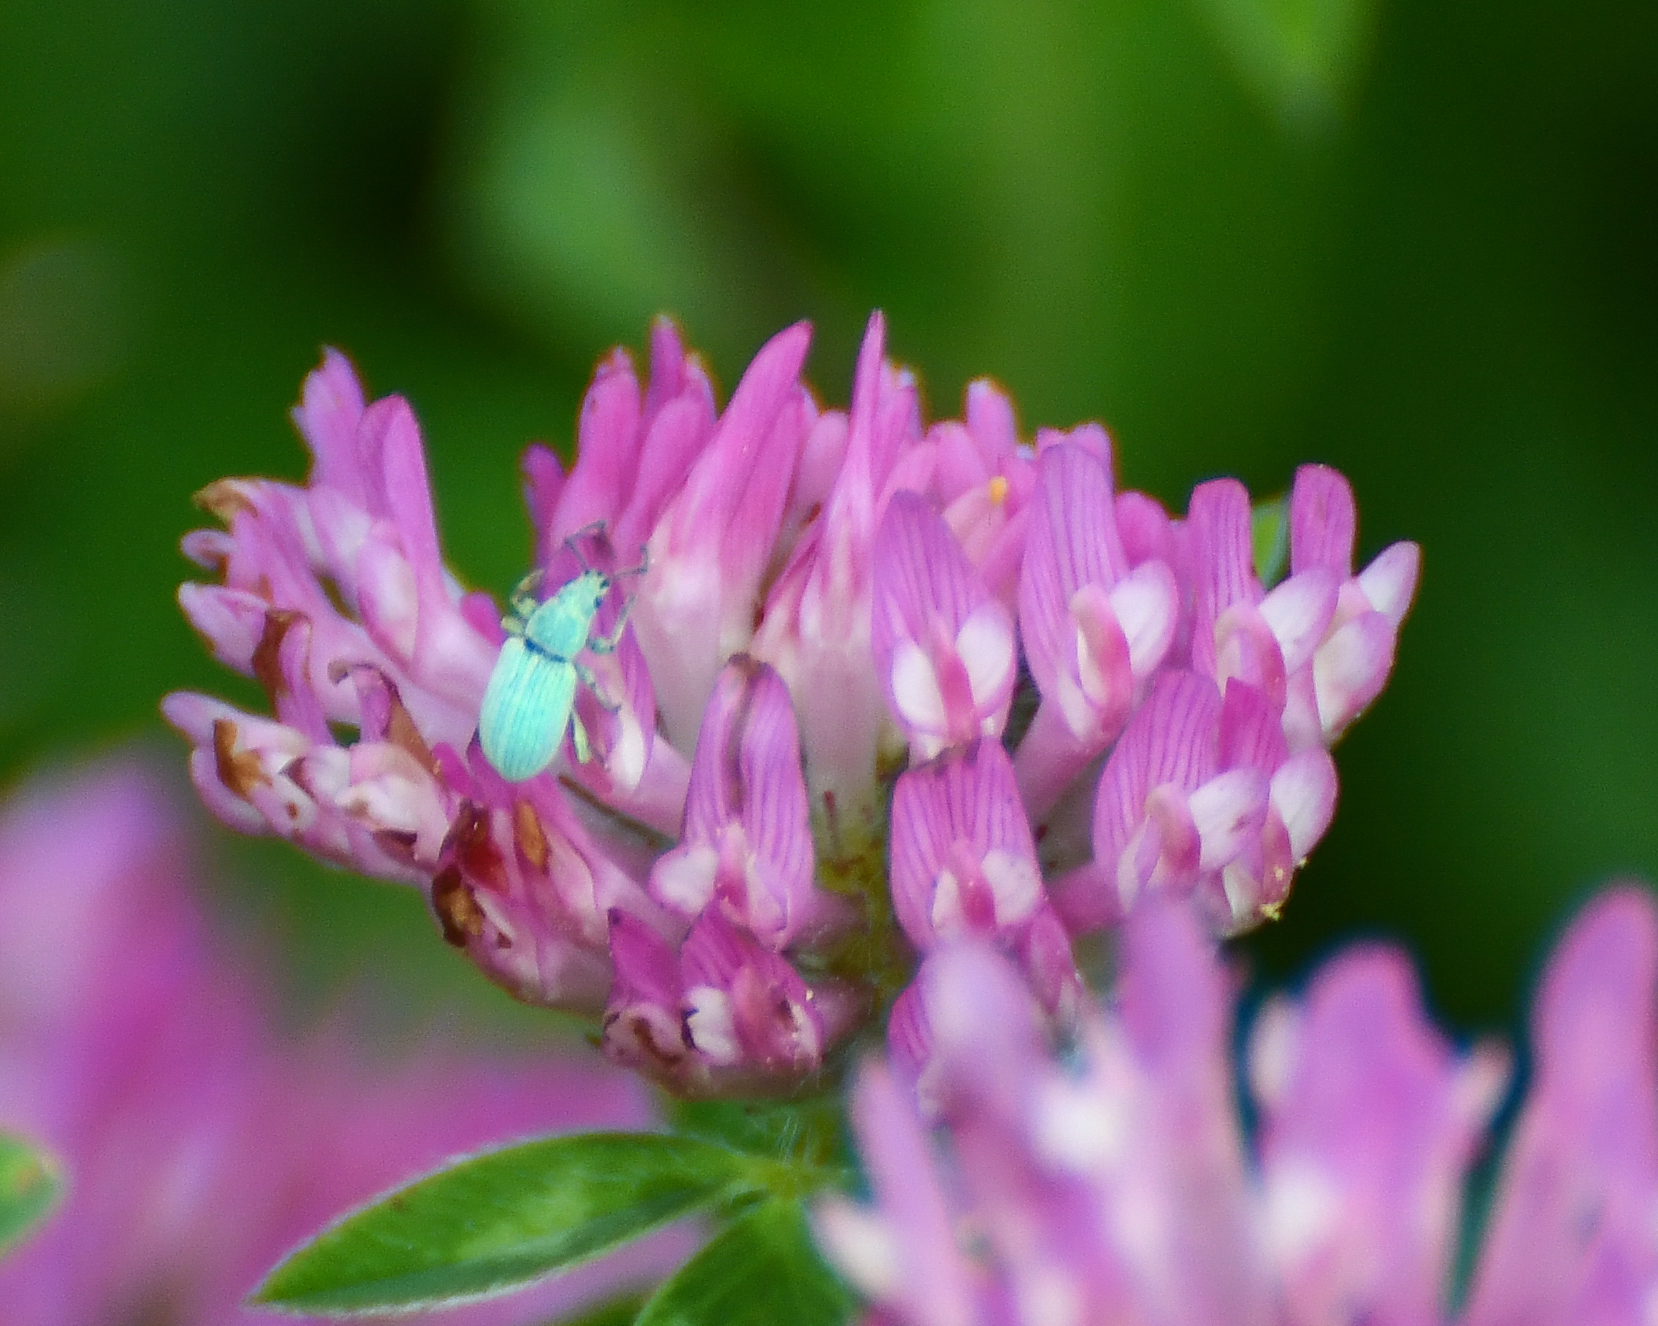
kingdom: Animalia
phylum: Arthropoda
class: Insecta
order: Coleoptera
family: Curculionidae
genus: Phyllobius
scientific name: Phyllobius virideaeris
